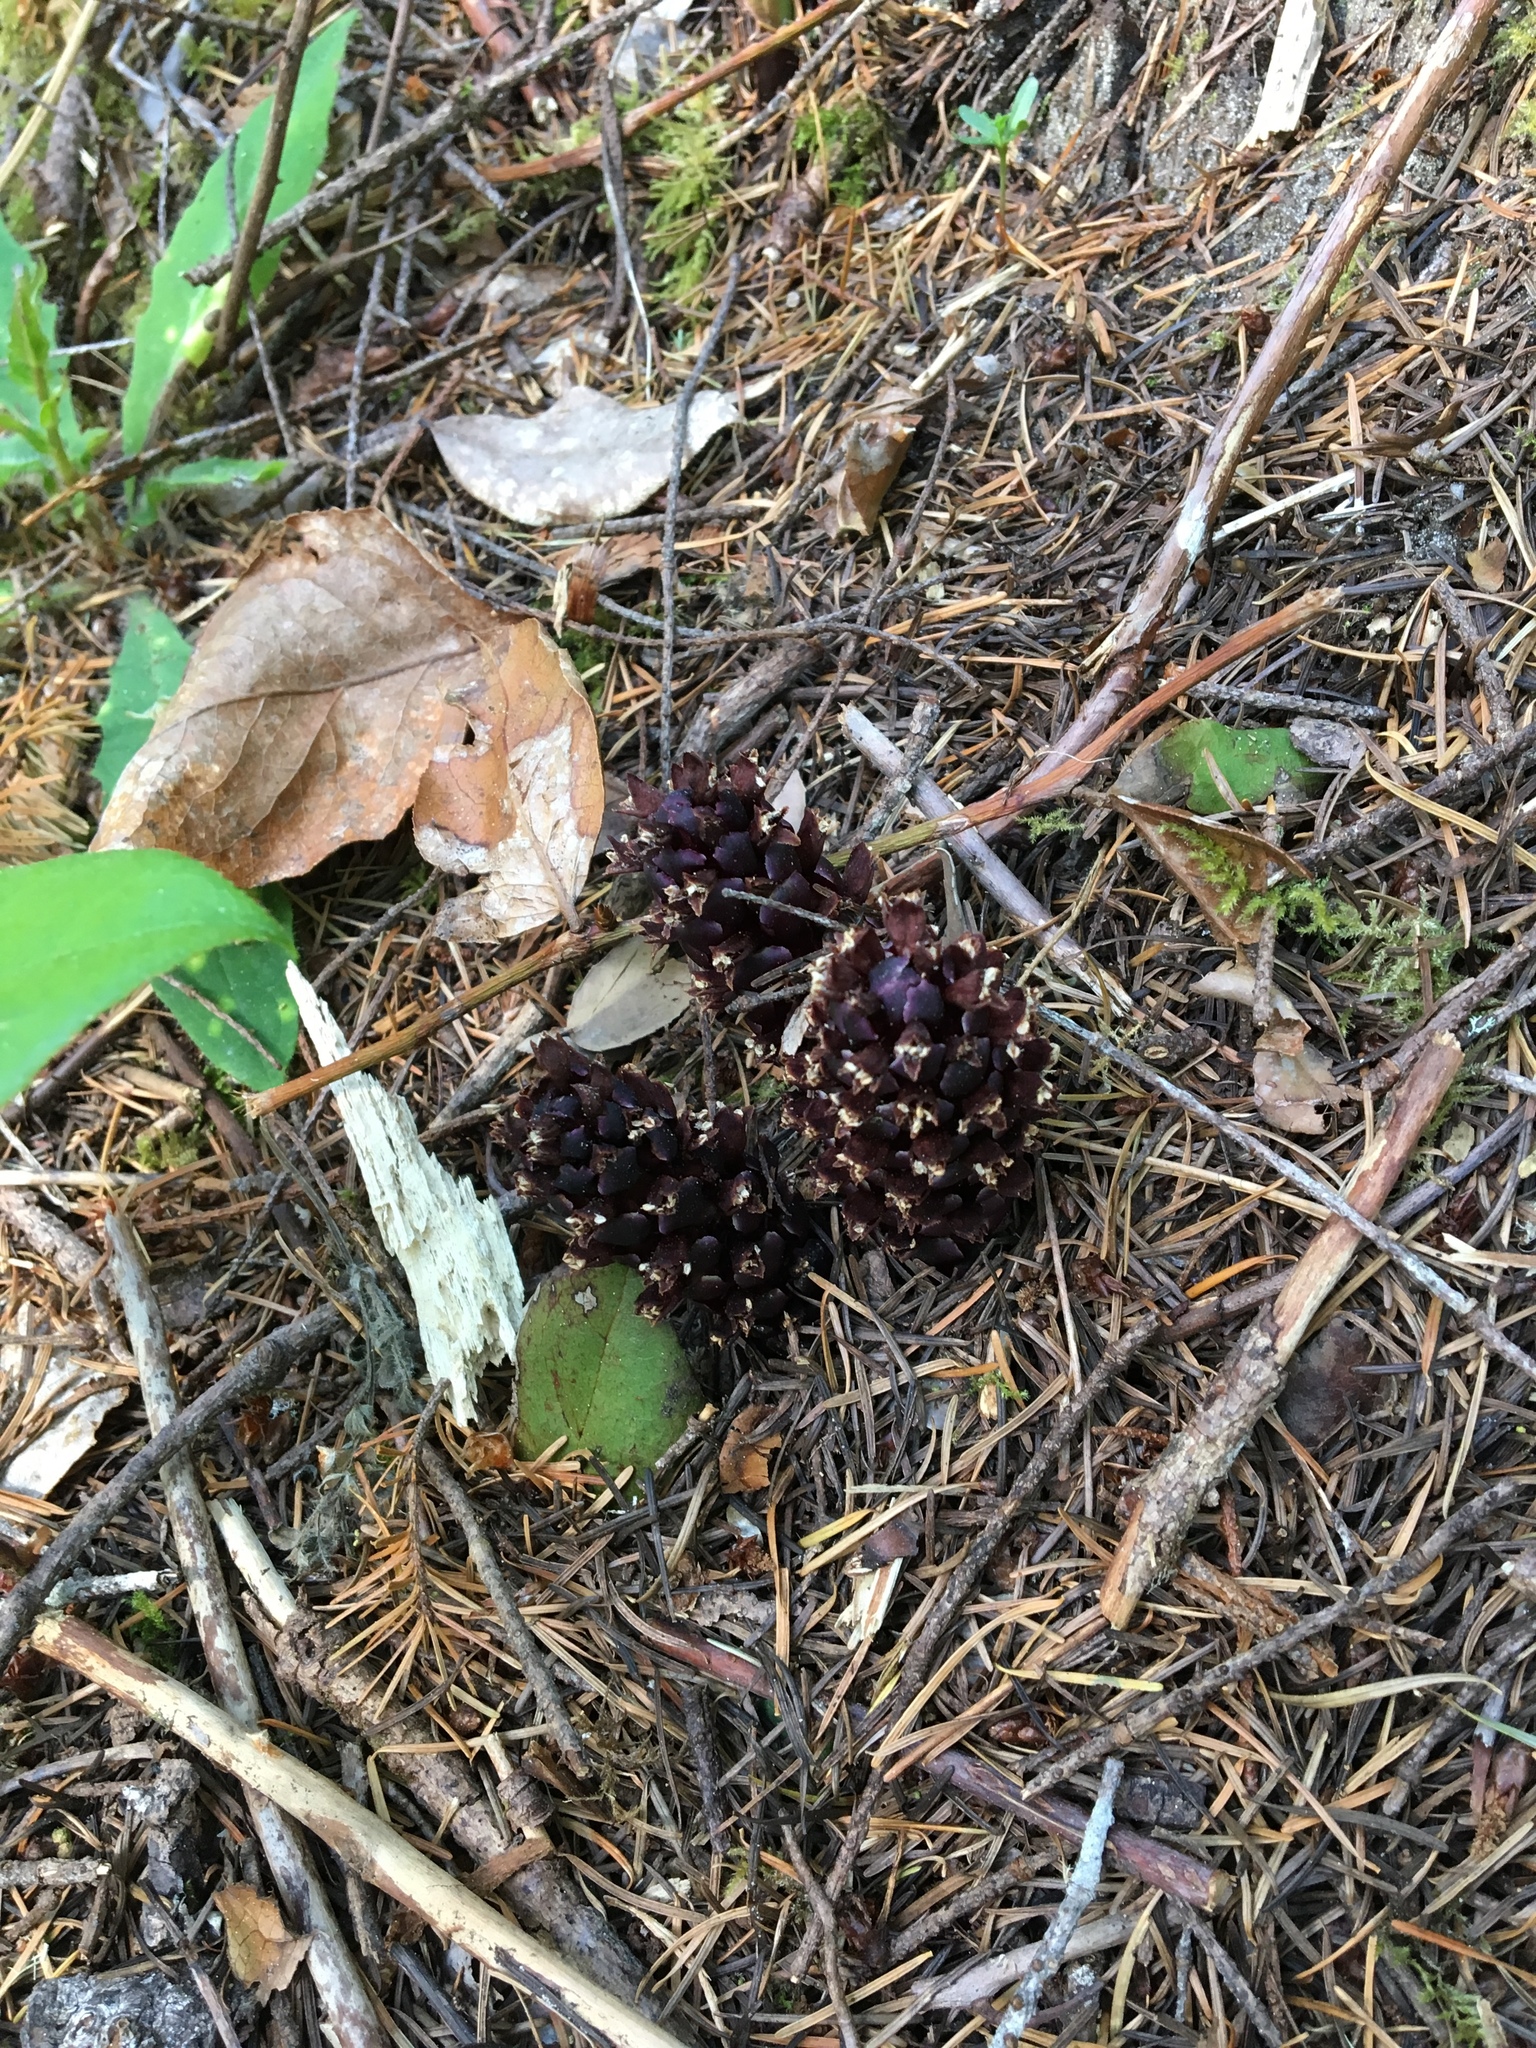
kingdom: Plantae
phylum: Tracheophyta
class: Magnoliopsida
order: Lamiales
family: Orobanchaceae
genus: Kopsiopsis
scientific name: Kopsiopsis hookeri
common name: Hooker's groundcone
